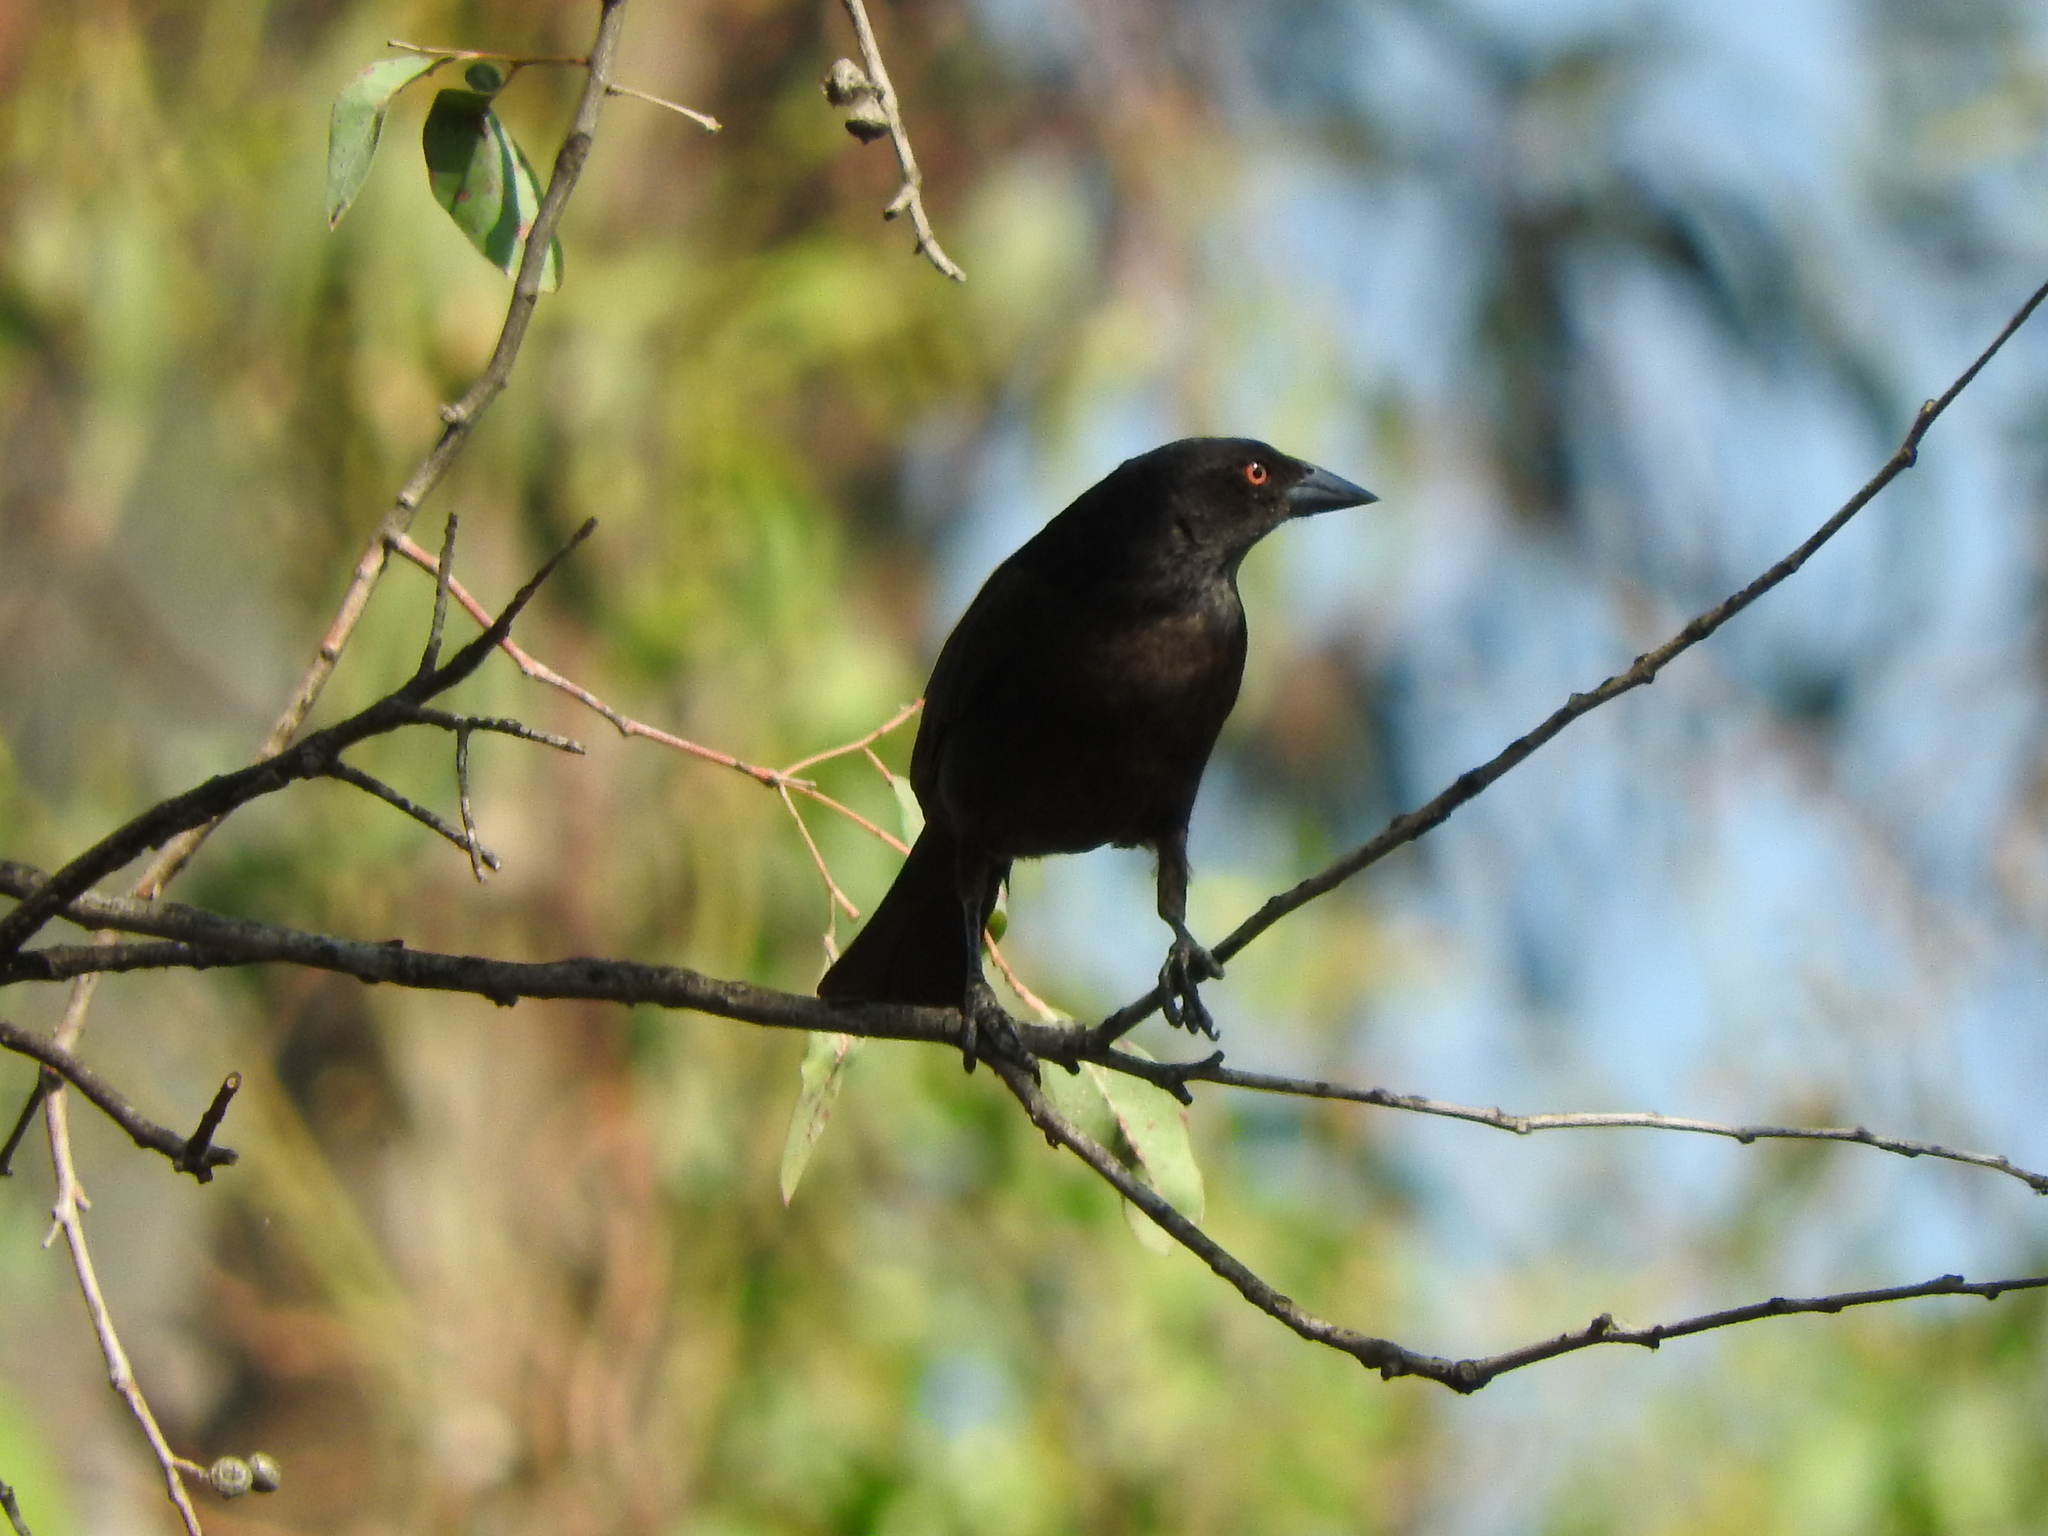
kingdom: Animalia
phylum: Chordata
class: Aves
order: Passeriformes
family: Icteridae
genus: Molothrus
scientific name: Molothrus aeneus
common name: Bronzed cowbird
